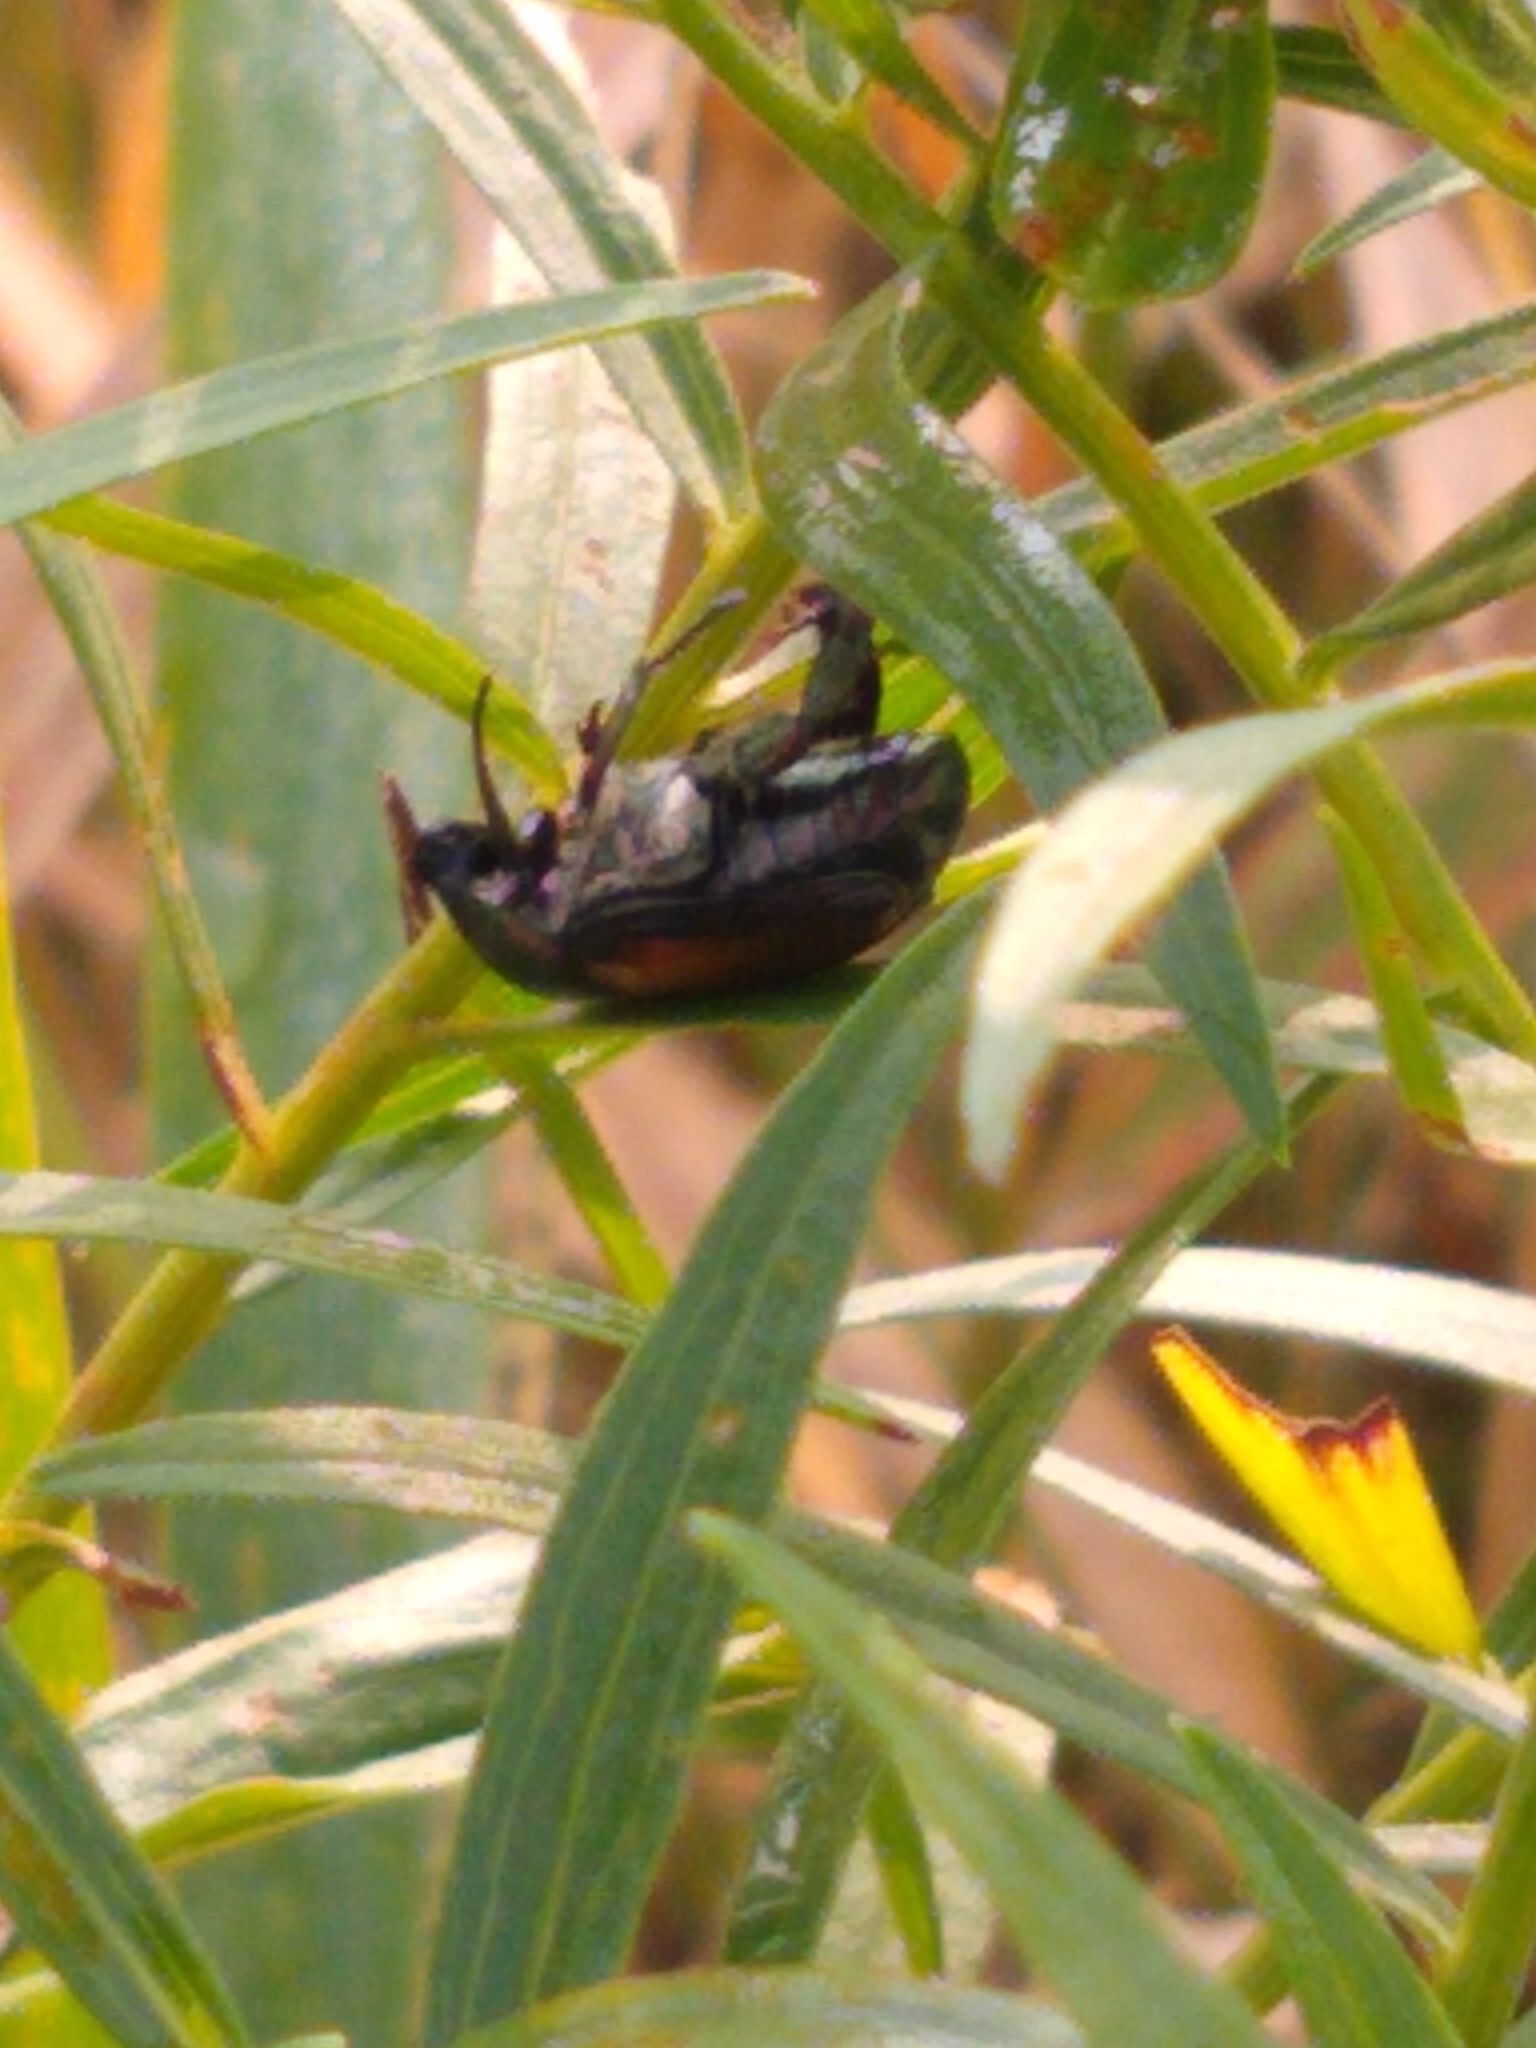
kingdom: Animalia
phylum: Arthropoda
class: Insecta
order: Coleoptera
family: Scarabaeidae
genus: Popillia
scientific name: Popillia japonica
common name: Japanese beetle
